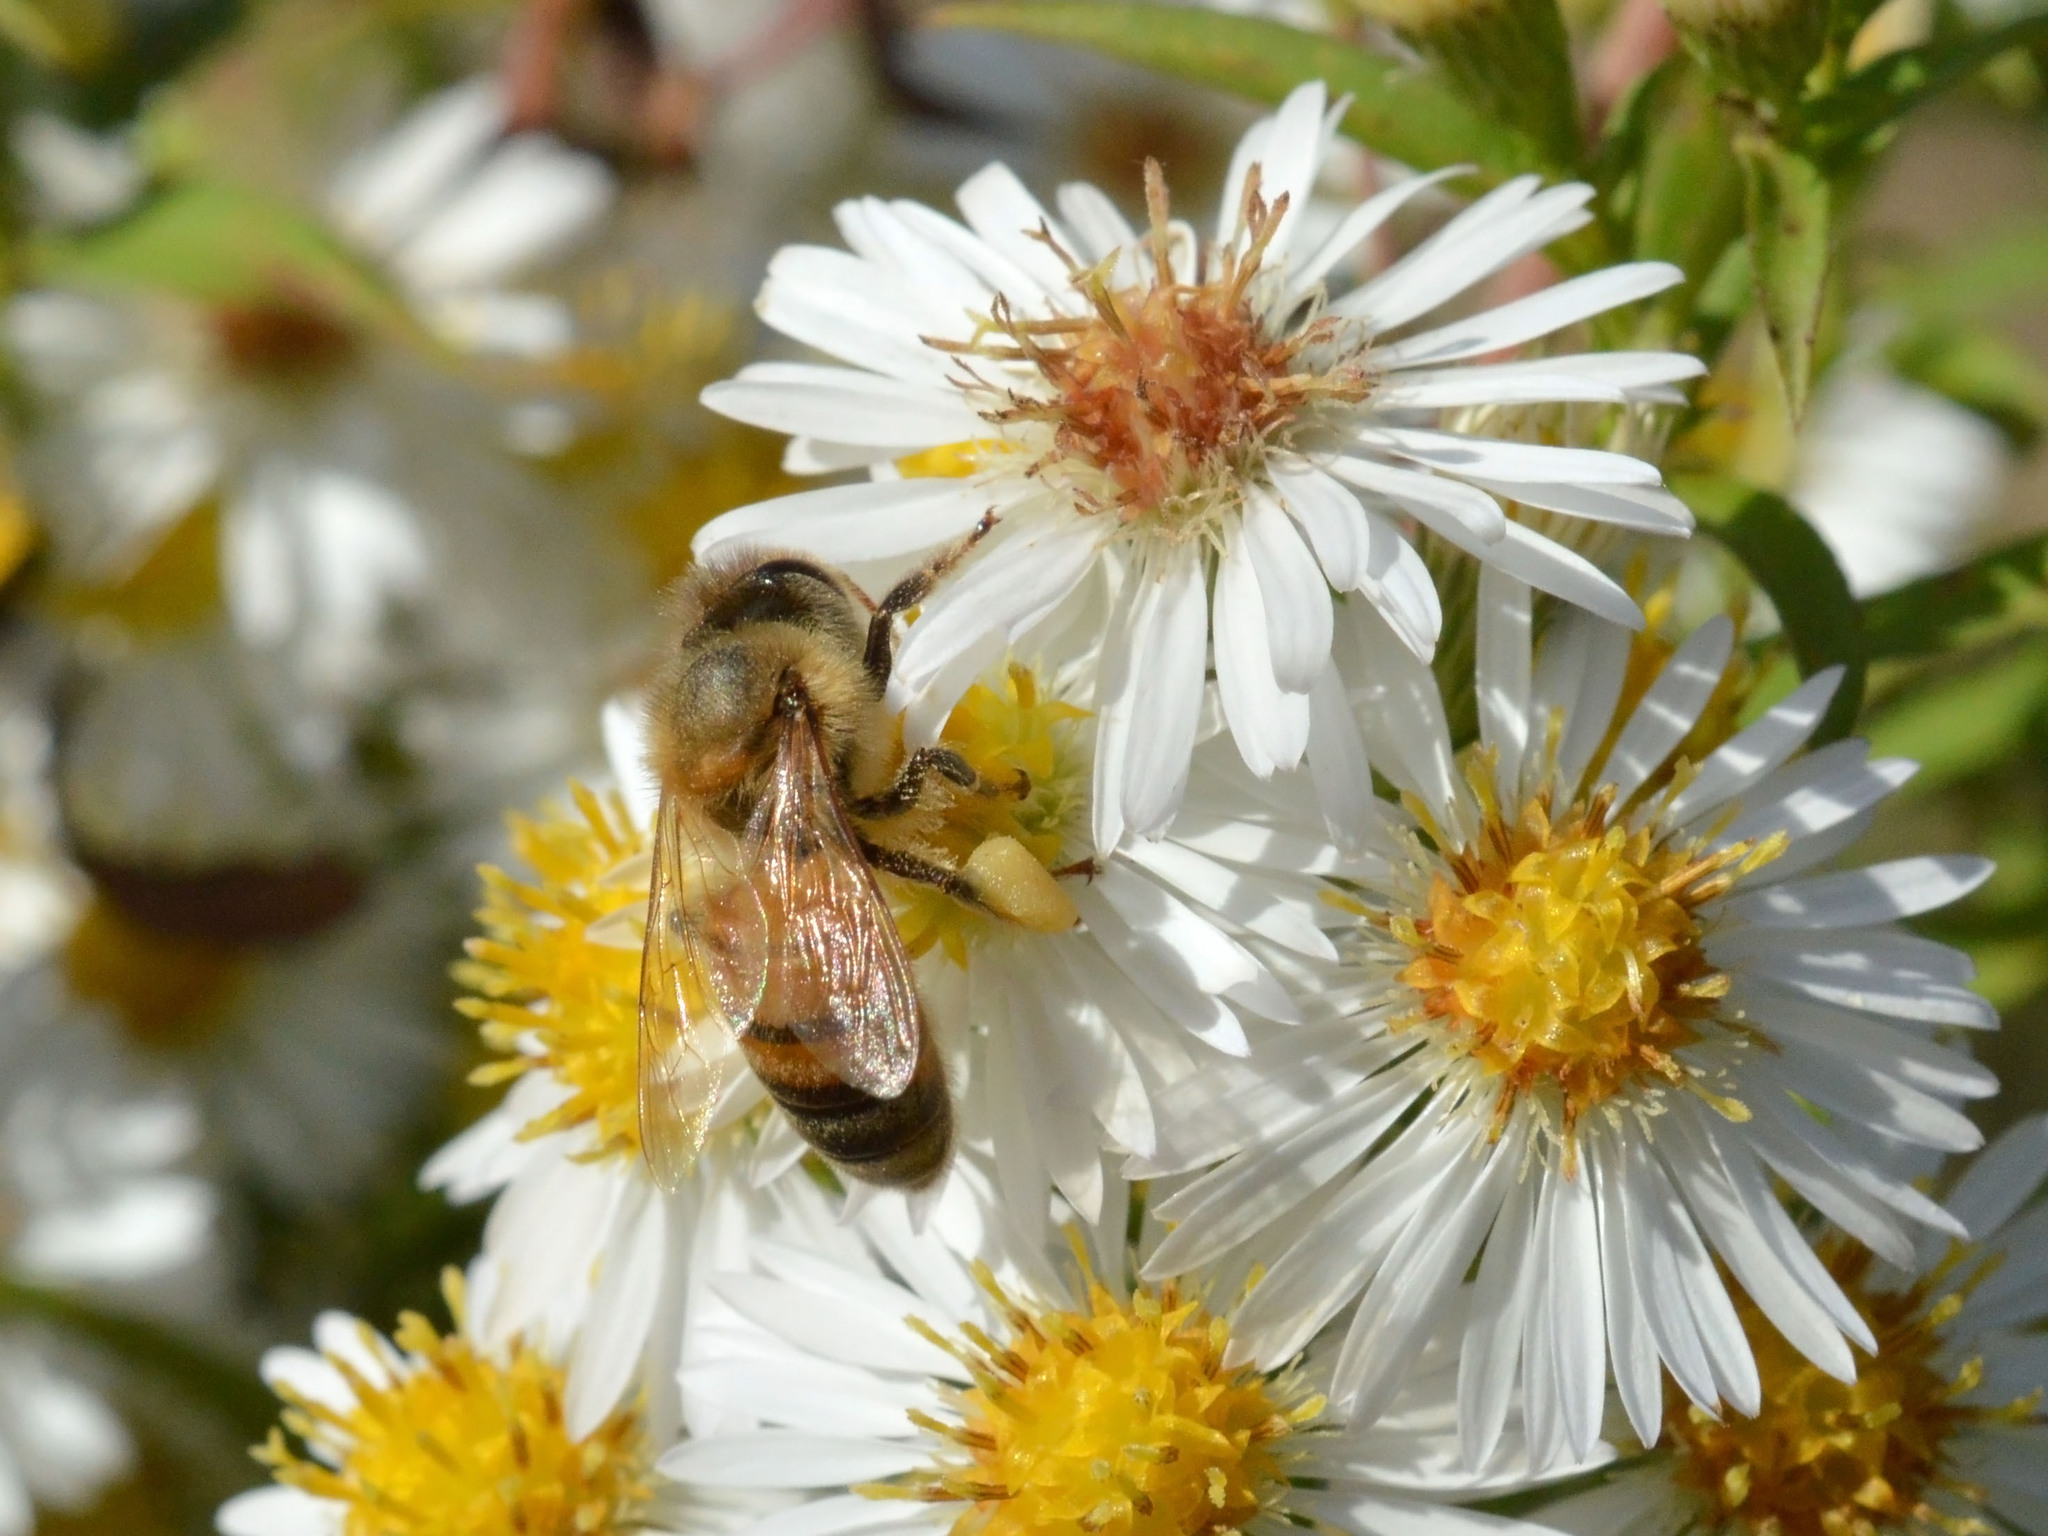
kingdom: Animalia
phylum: Arthropoda
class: Insecta
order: Hymenoptera
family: Apidae
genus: Apis
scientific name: Apis mellifera
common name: Honey bee
